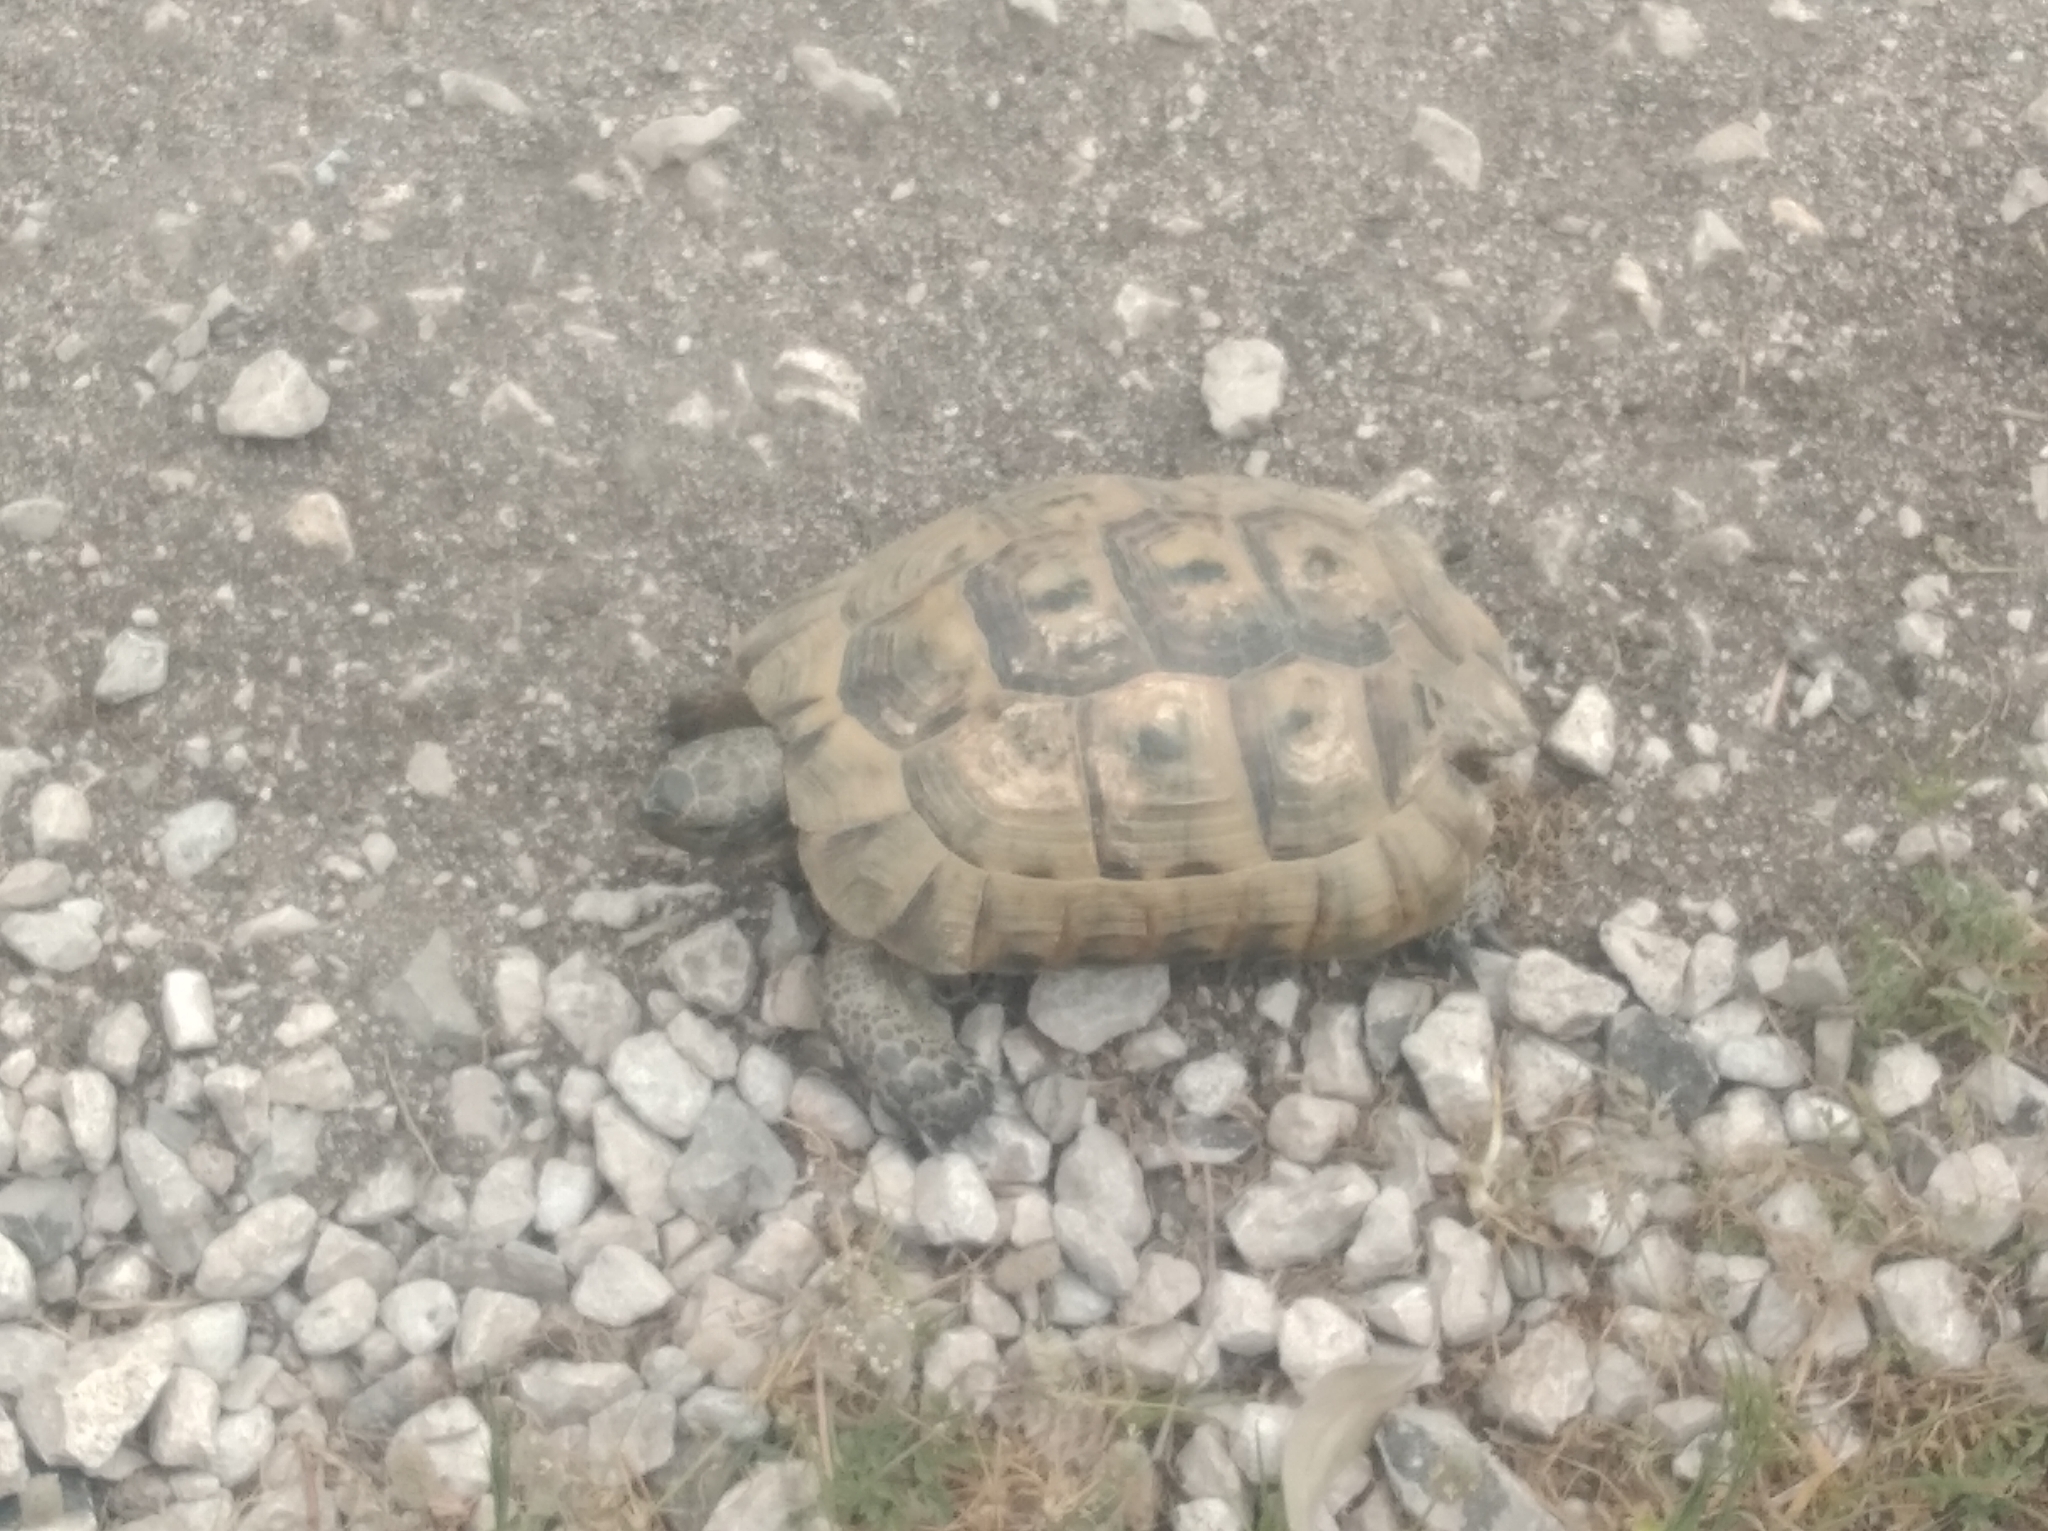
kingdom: Animalia
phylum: Chordata
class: Testudines
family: Testudinidae
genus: Testudo
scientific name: Testudo graeca
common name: Common tortoise
